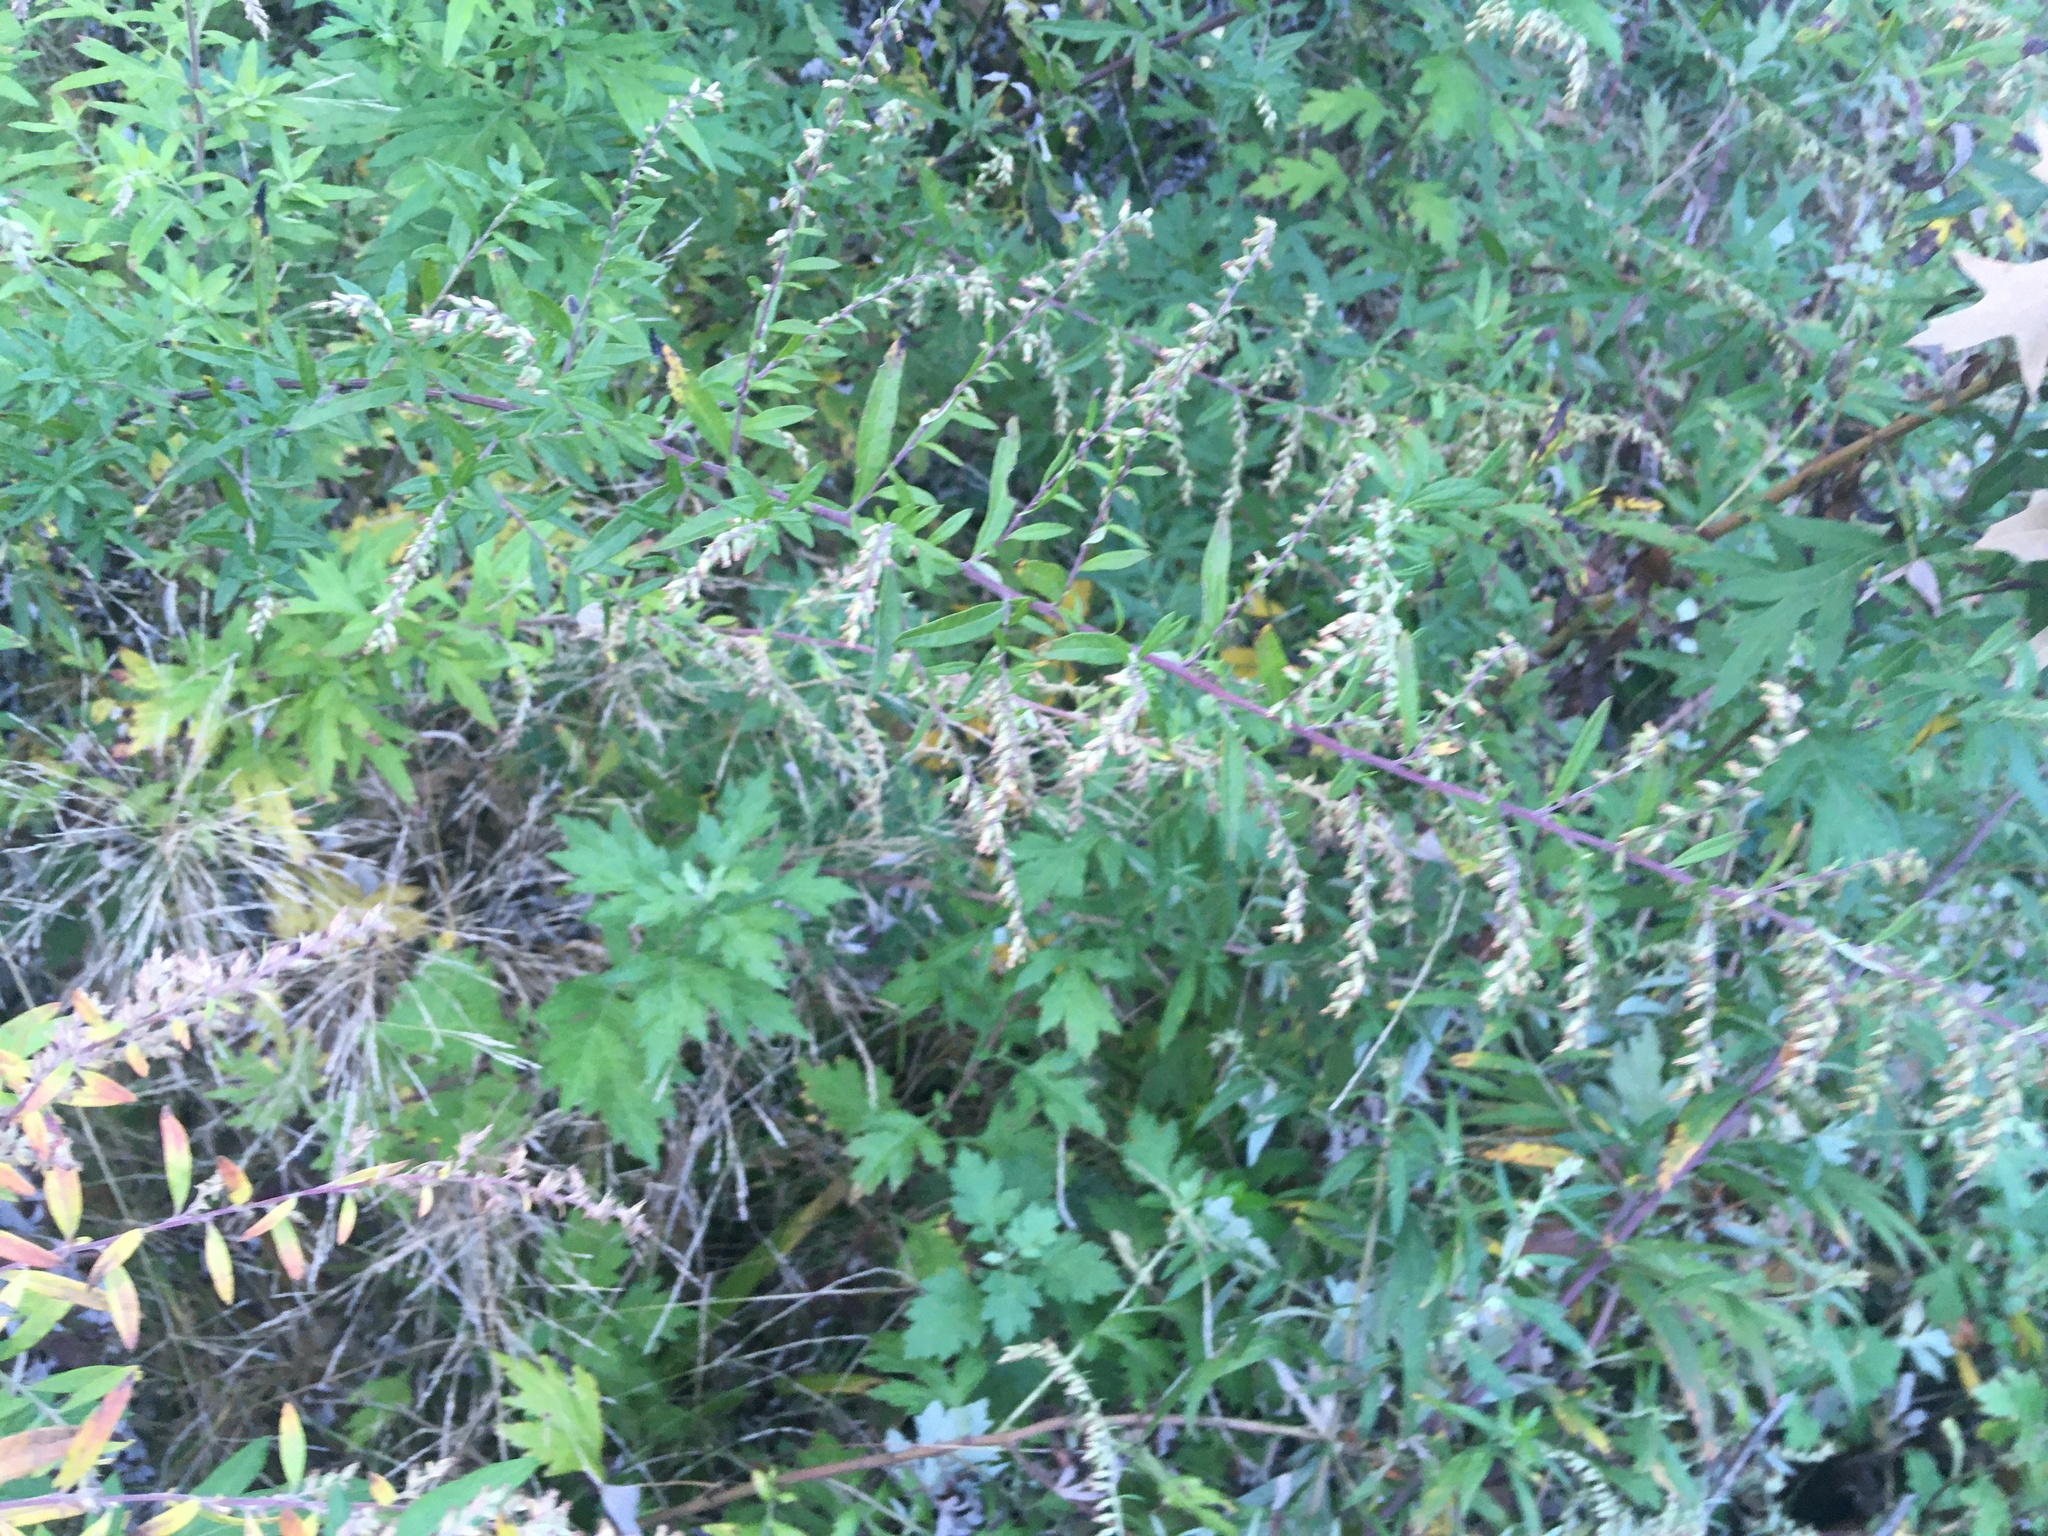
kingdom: Plantae
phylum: Tracheophyta
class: Magnoliopsida
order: Asterales
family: Asteraceae
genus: Artemisia
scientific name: Artemisia vulgaris
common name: Mugwort
